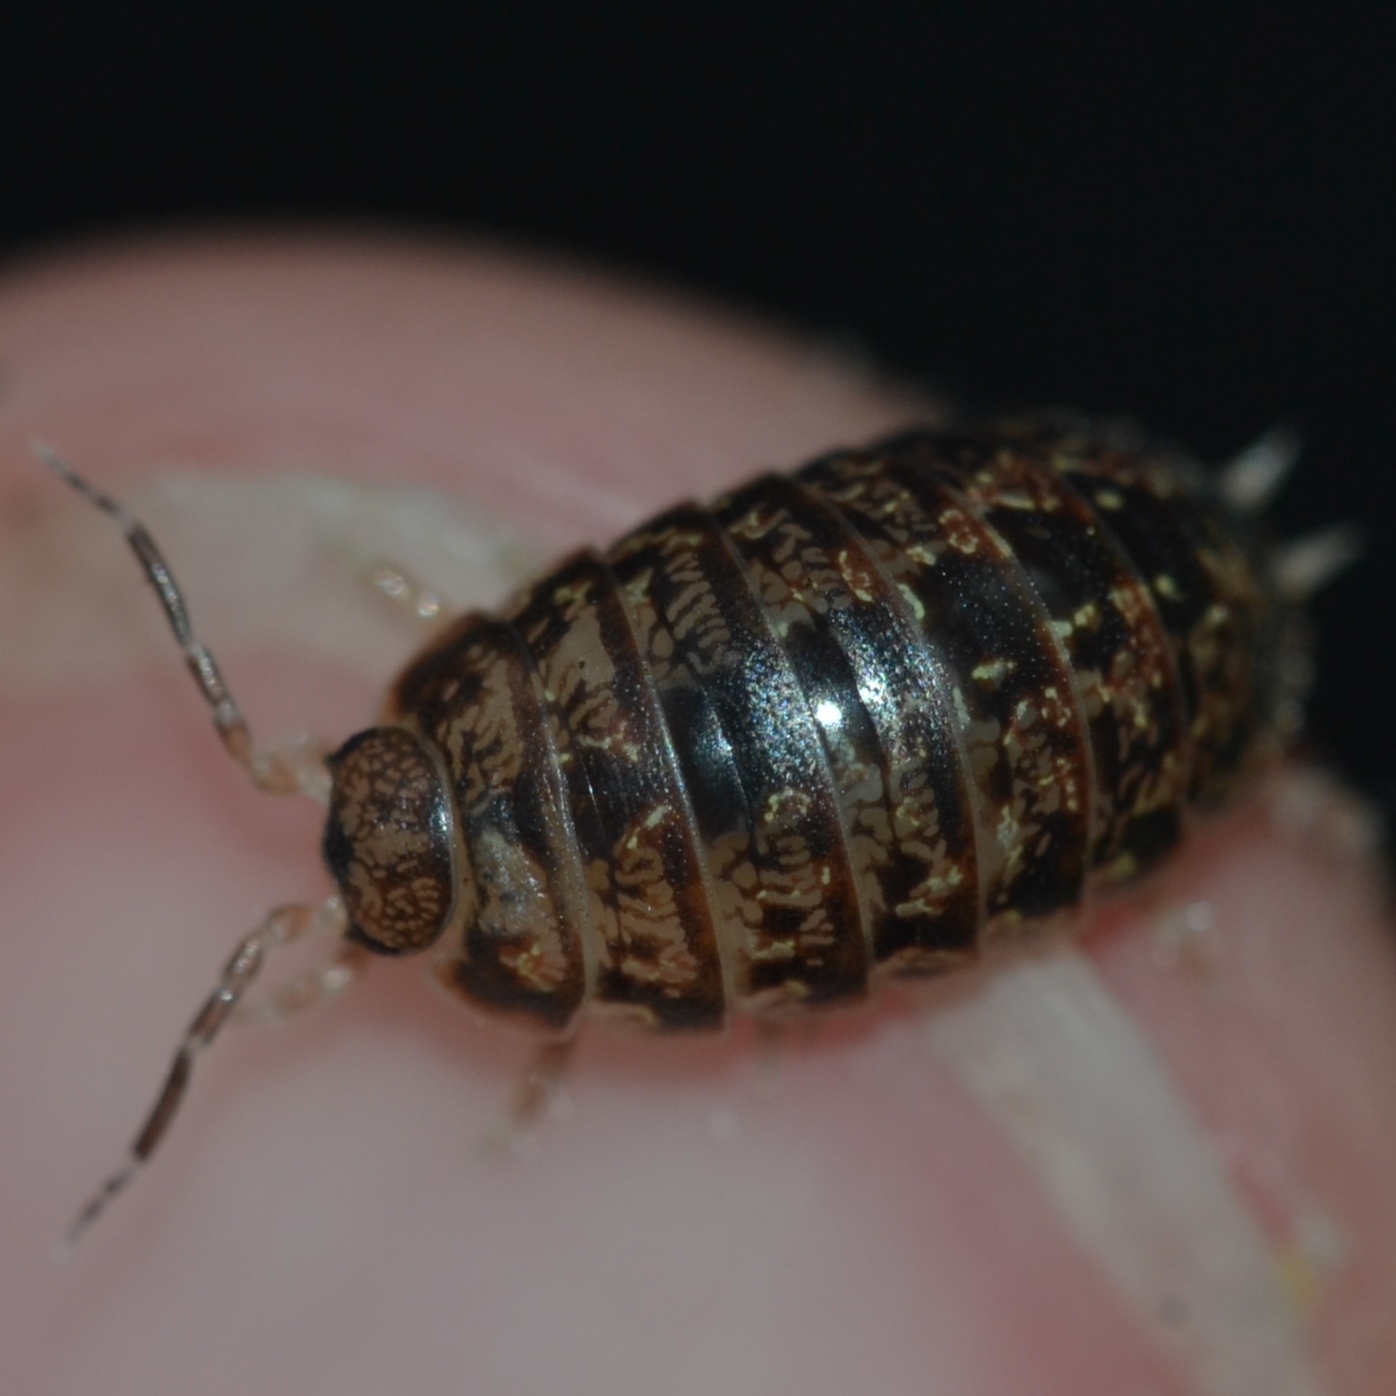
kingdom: Animalia
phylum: Arthropoda
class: Malacostraca
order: Isopoda
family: Alloniscidae
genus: Alloniscus
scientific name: Alloniscus oahuensis
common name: Pillbug
